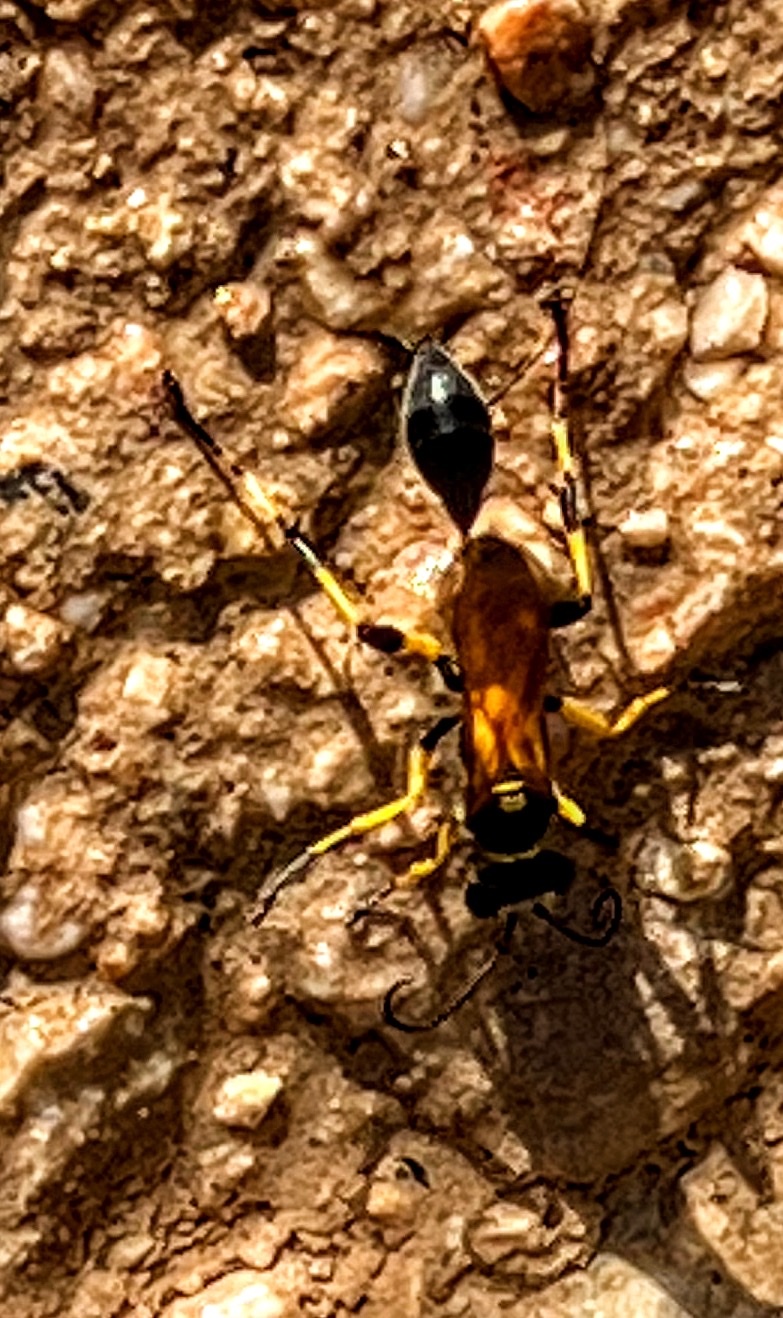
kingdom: Animalia
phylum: Arthropoda
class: Insecta
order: Hymenoptera
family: Sphecidae
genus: Sceliphron
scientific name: Sceliphron madraspatanum
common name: Mud dauber
